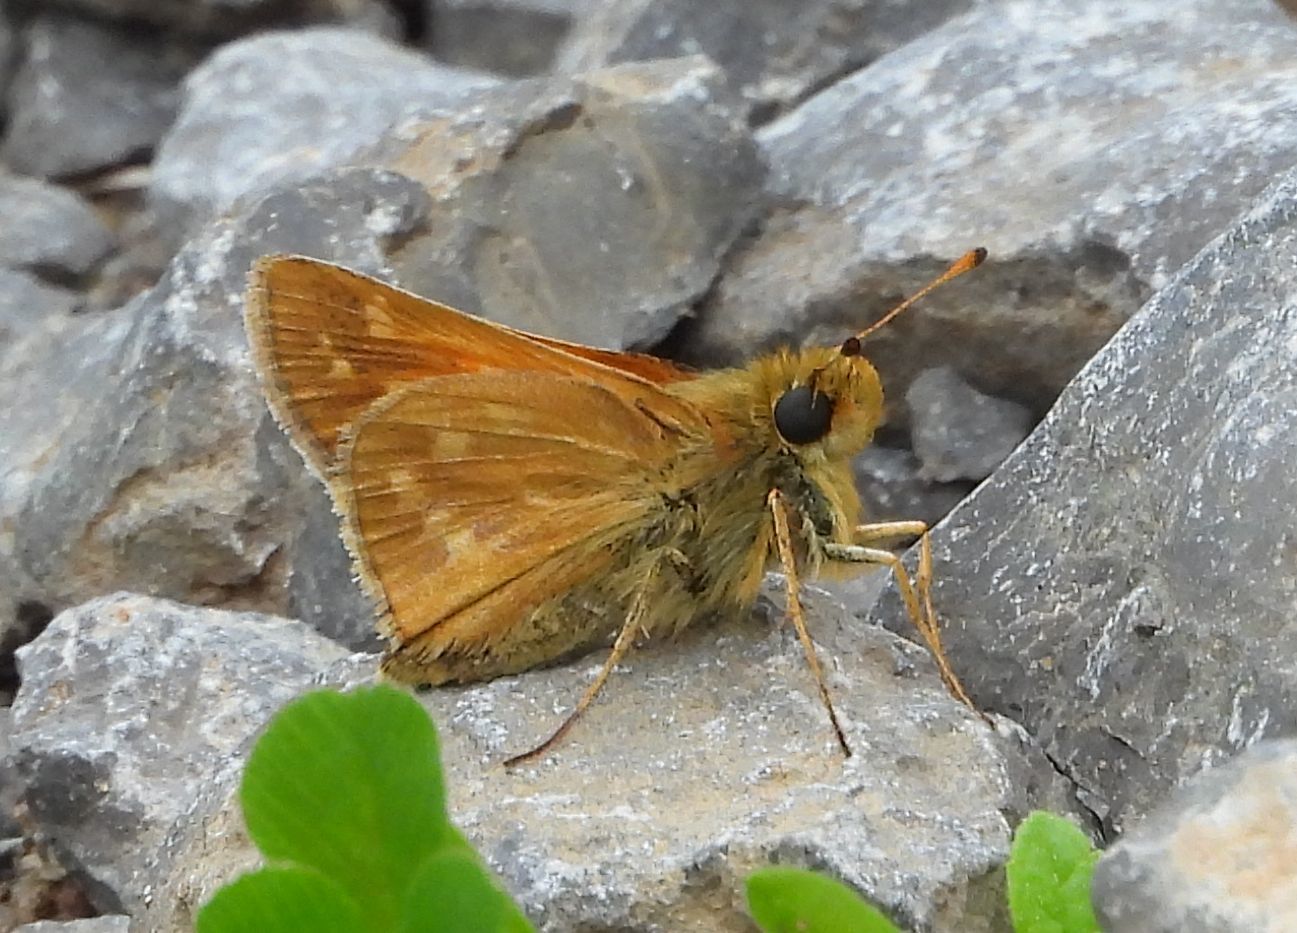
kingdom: Animalia
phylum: Arthropoda
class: Insecta
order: Lepidoptera
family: Hesperiidae
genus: Hesperia
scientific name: Hesperia sassacus
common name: Indian skipper
